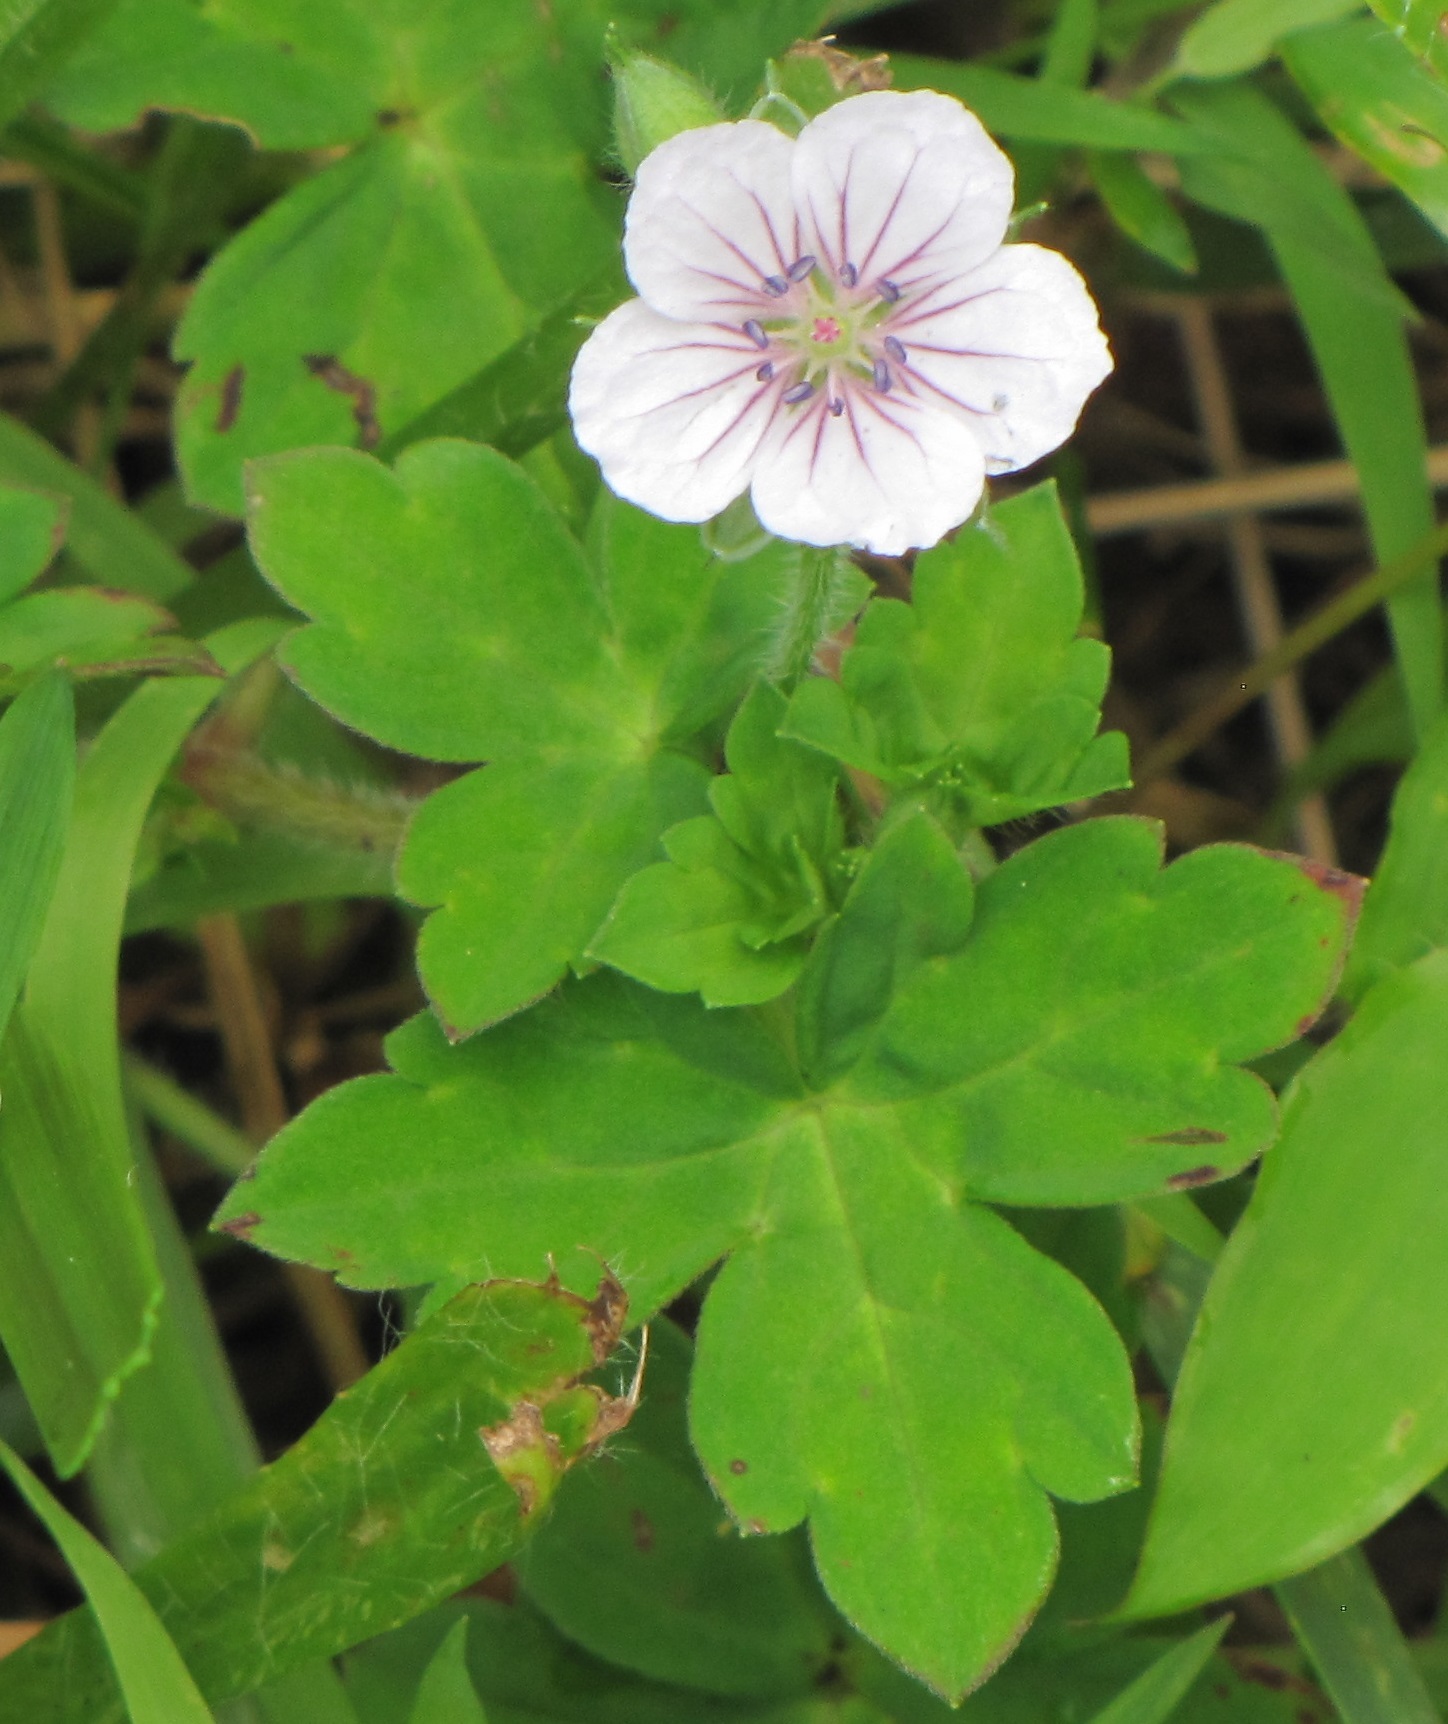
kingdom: Plantae
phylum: Tracheophyta
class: Magnoliopsida
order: Geraniales
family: Geraniaceae
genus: Geranium
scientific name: Geranium thunbergii
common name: Dewdrop crane's-bill
